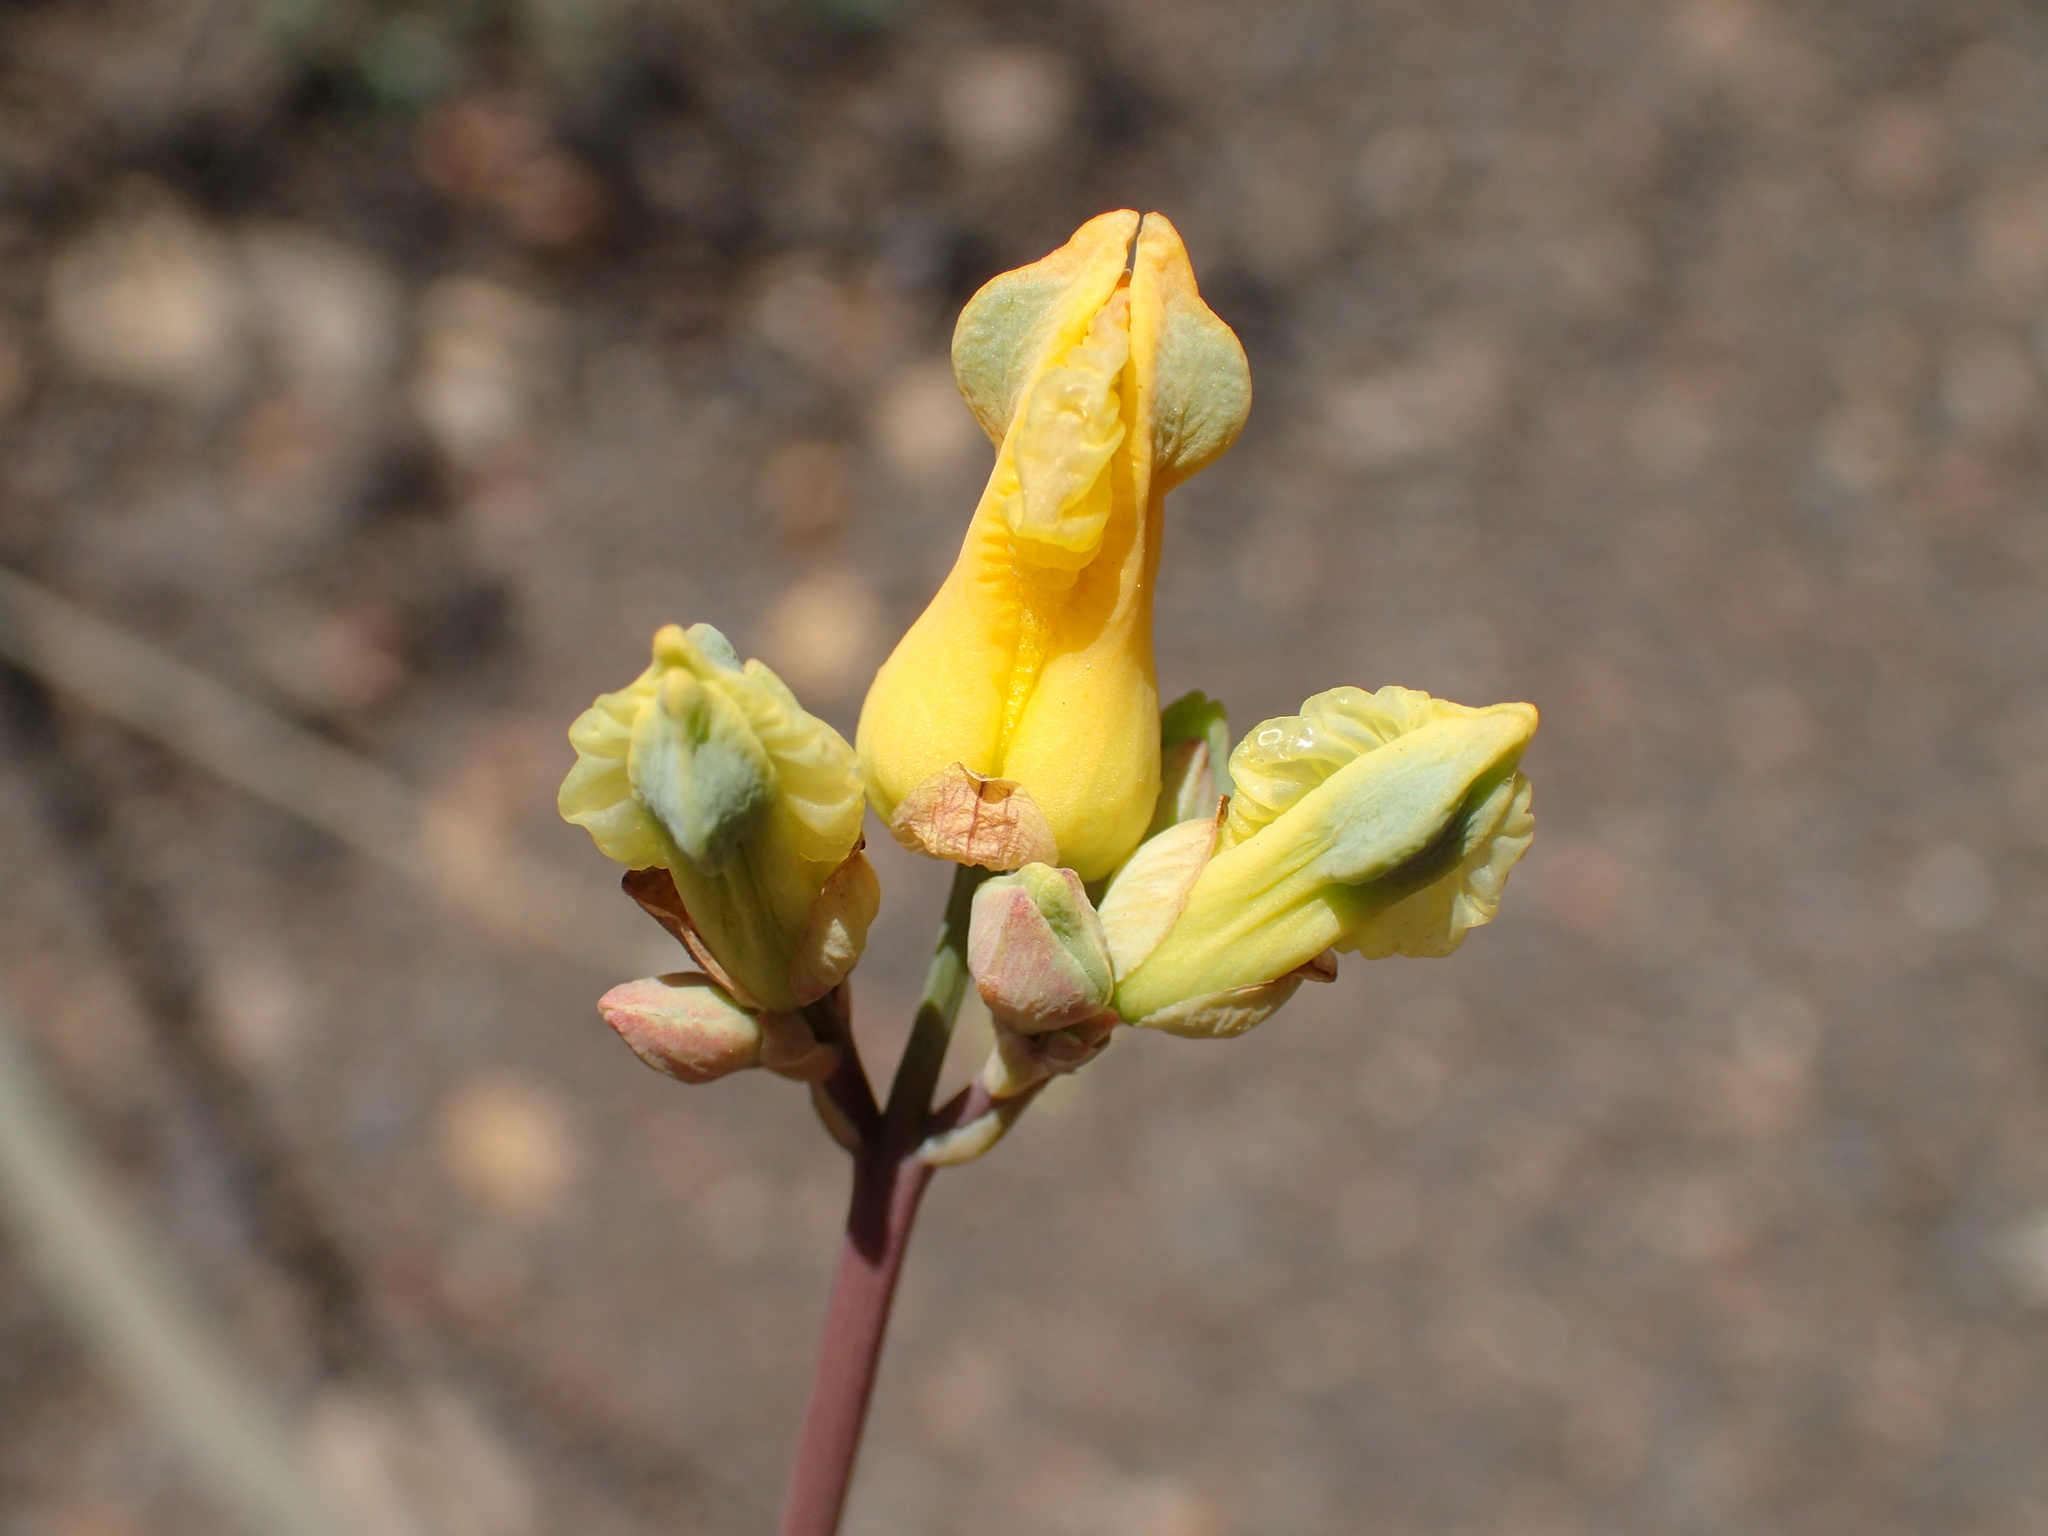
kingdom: Plantae
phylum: Tracheophyta
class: Magnoliopsida
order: Ranunculales
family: Papaveraceae
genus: Ehrendorferia
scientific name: Ehrendorferia chrysantha
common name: Golden eardrops
